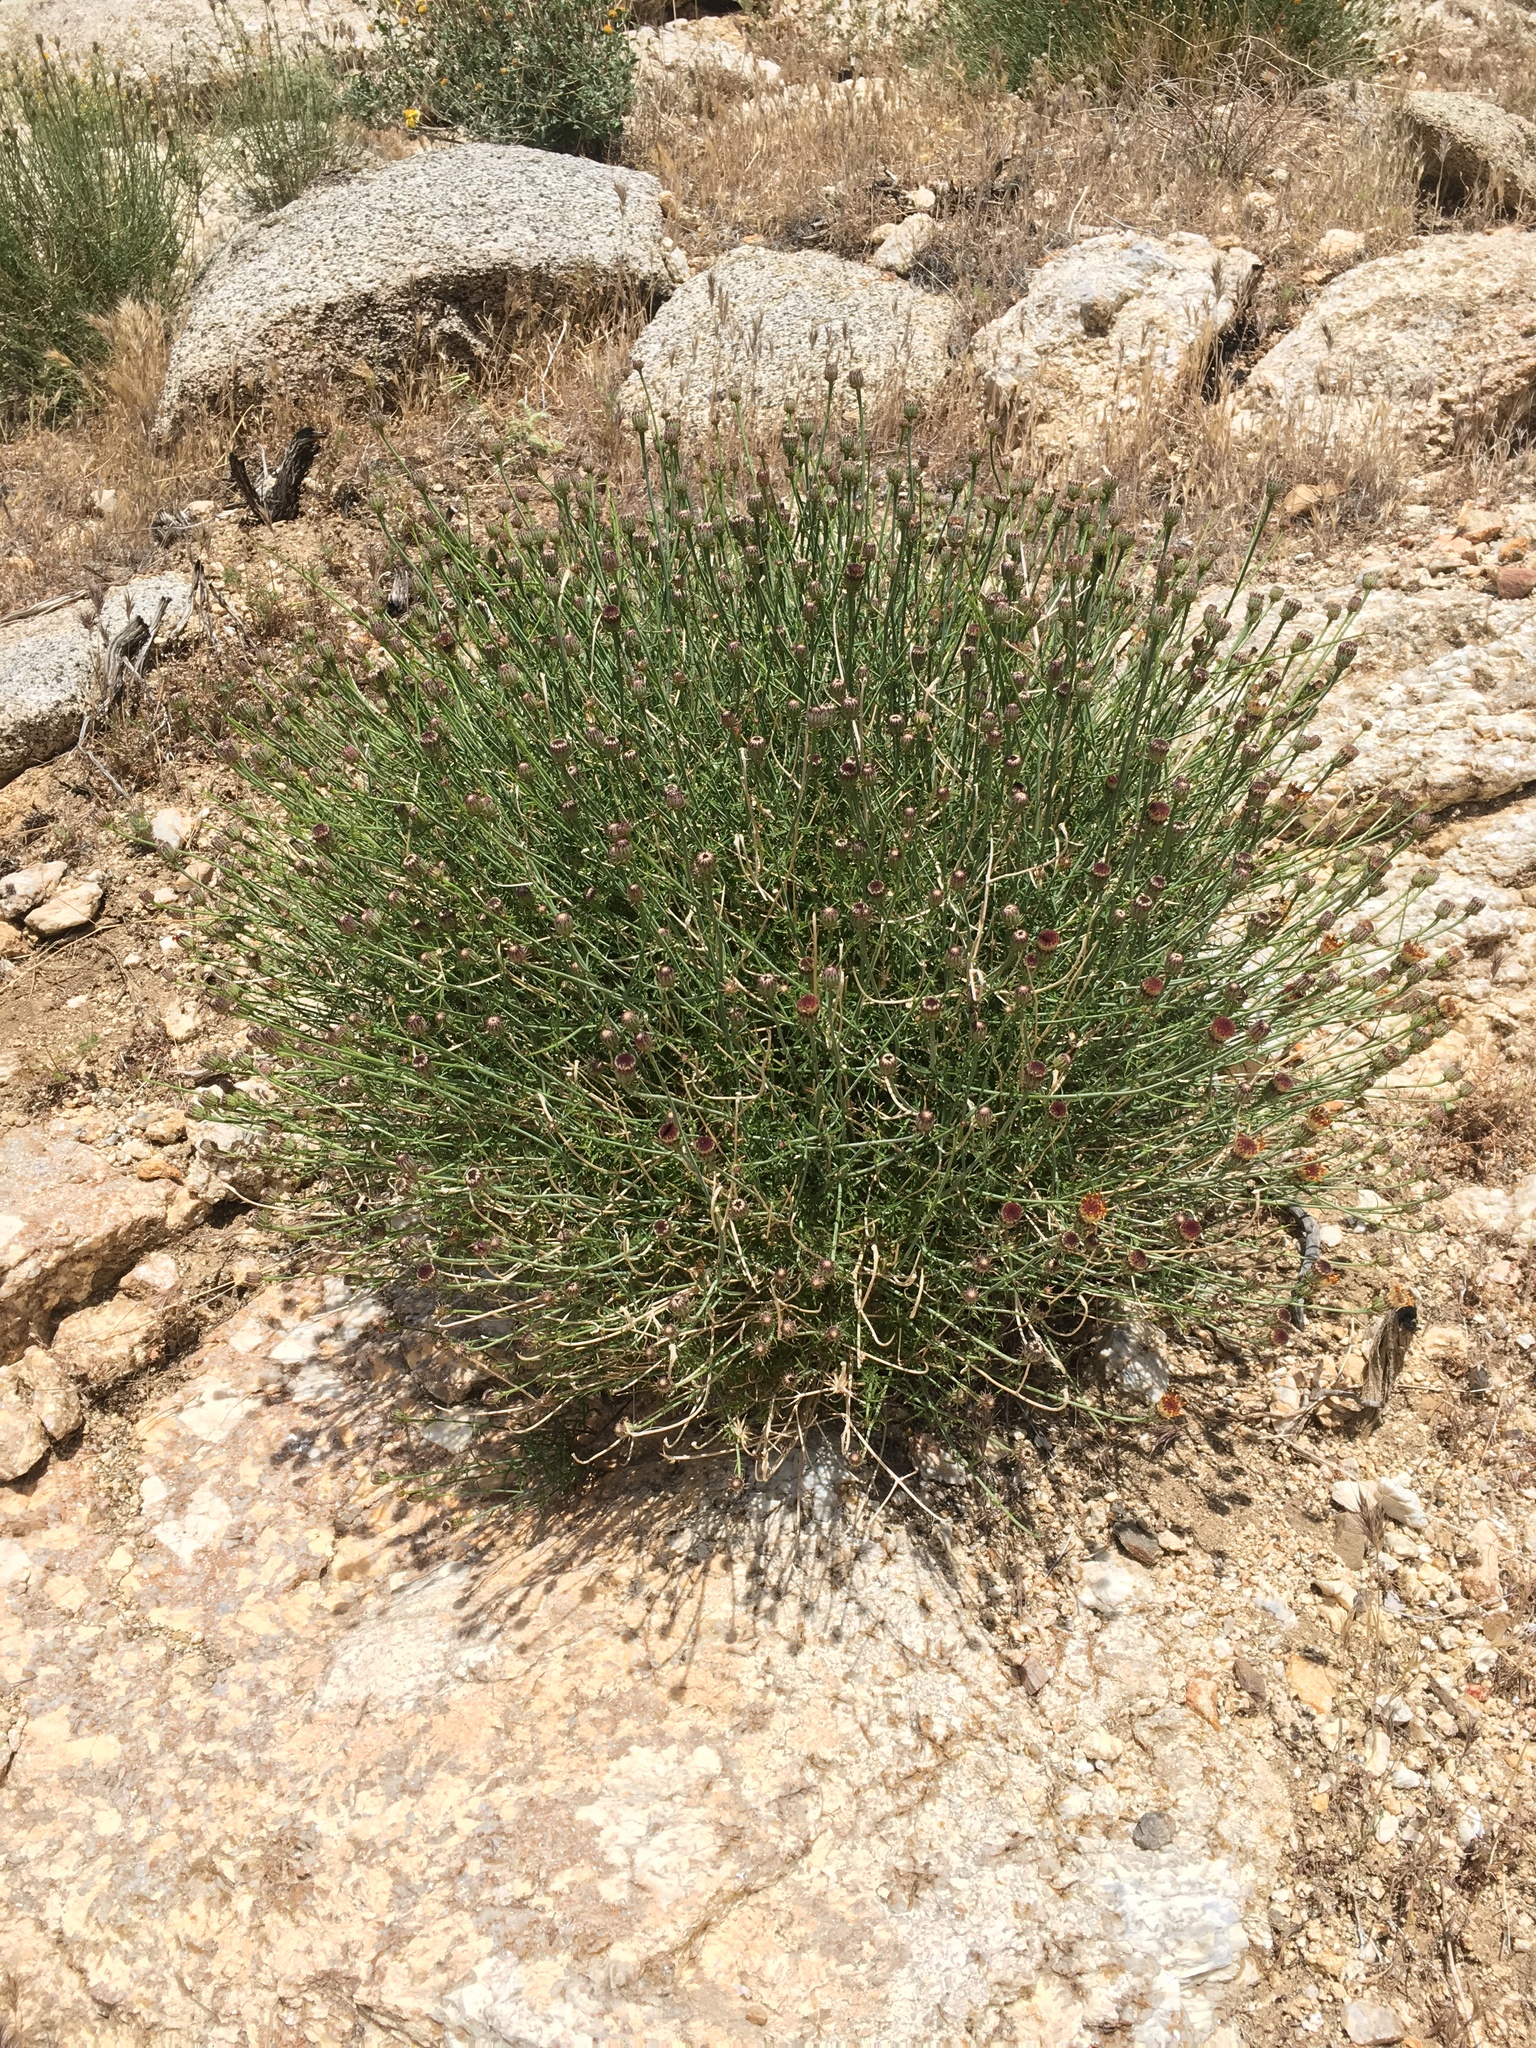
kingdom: Plantae
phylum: Tracheophyta
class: Magnoliopsida
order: Asterales
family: Asteraceae
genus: Adenophyllum
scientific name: Adenophyllum porophylloides
